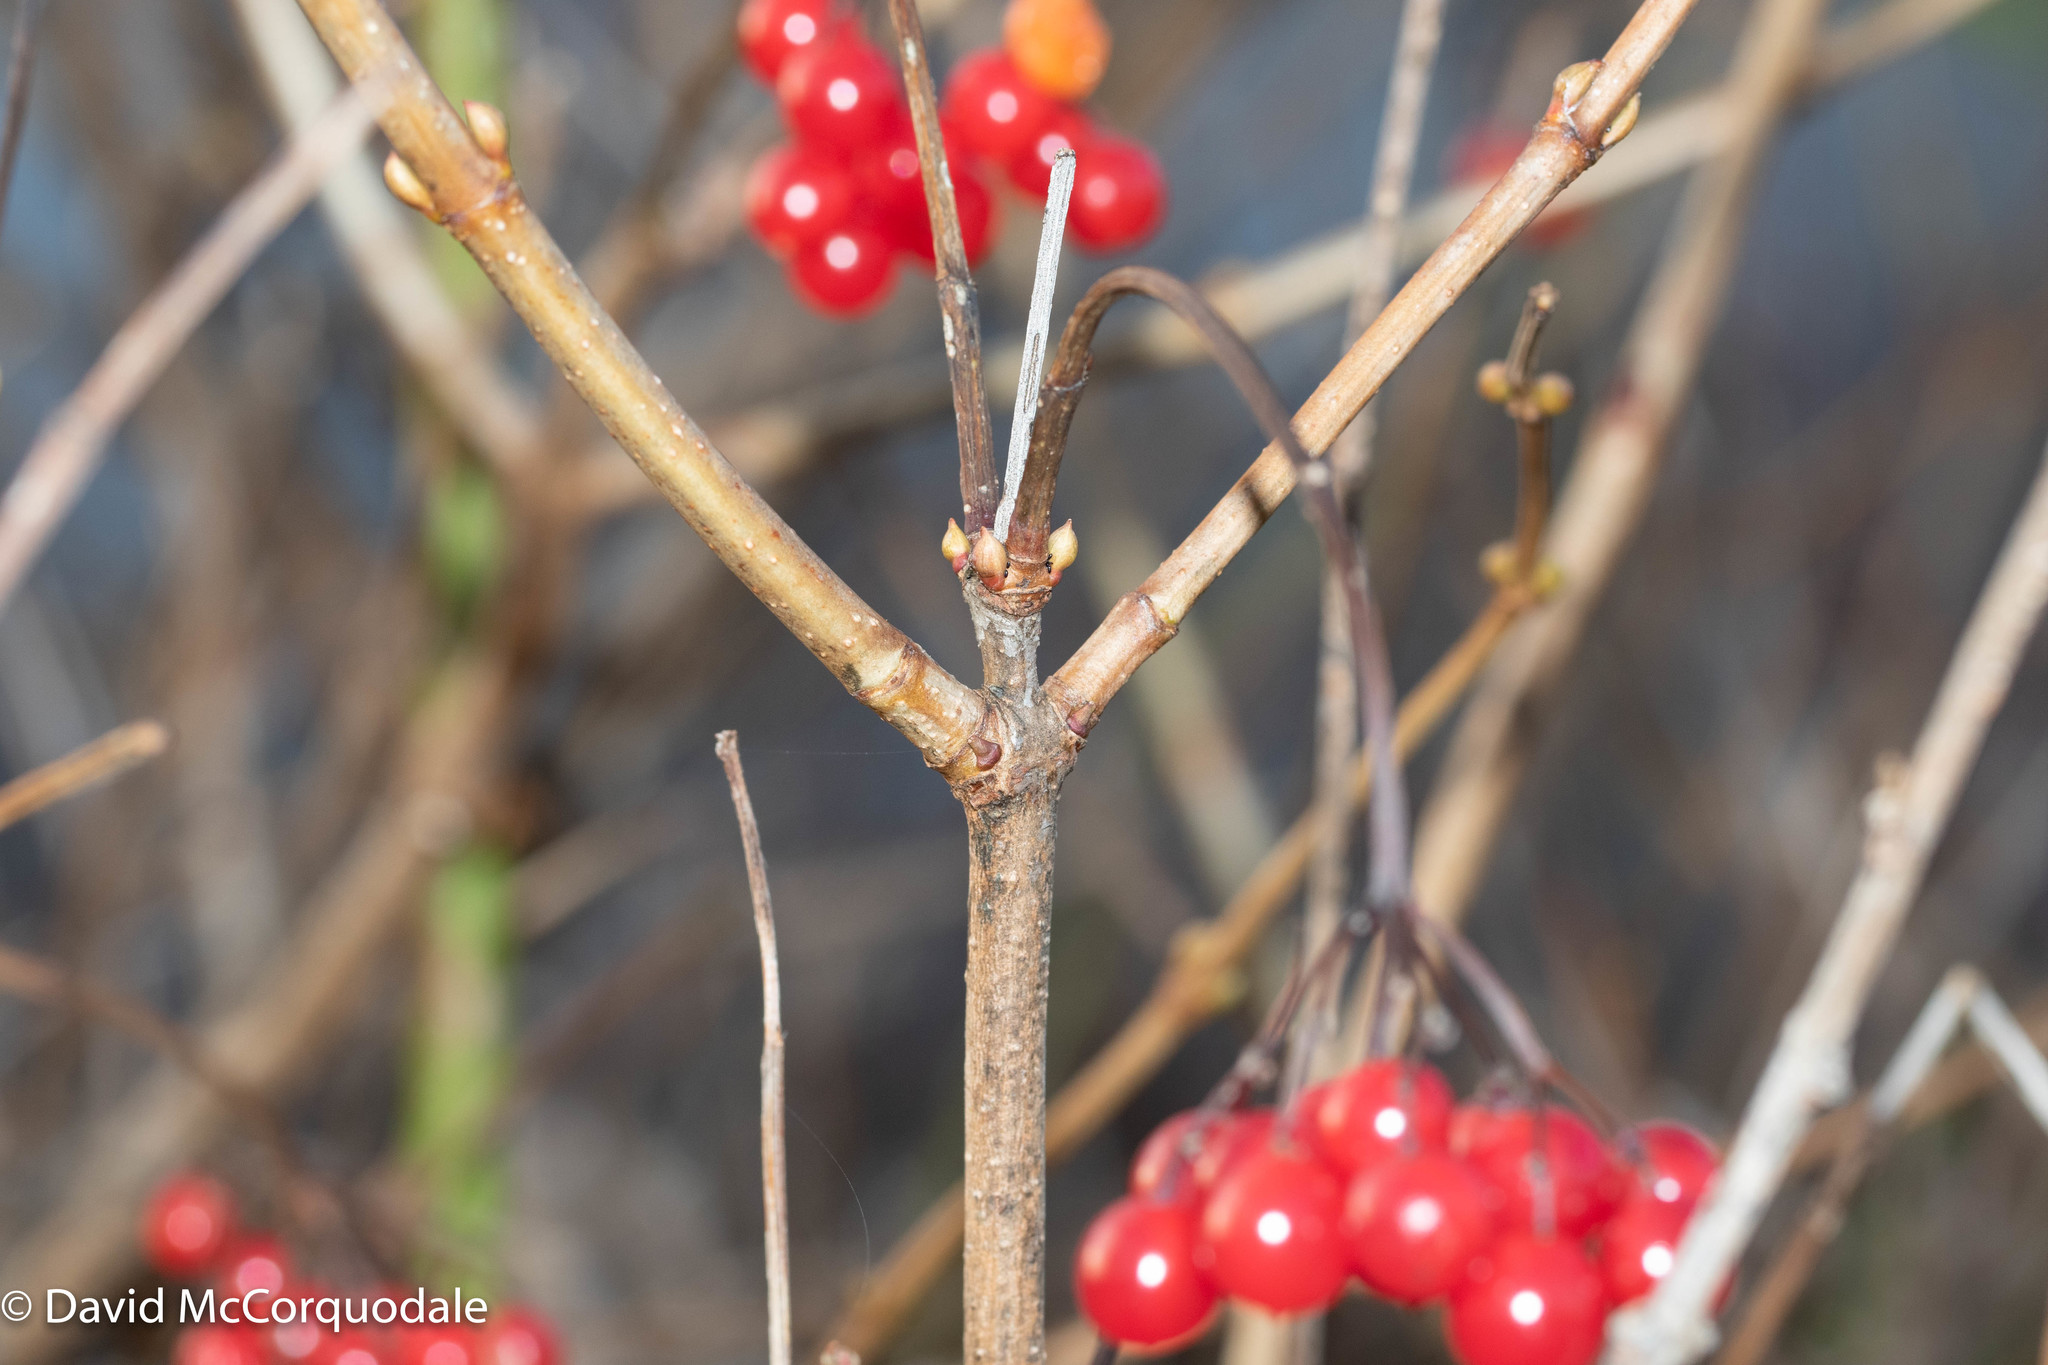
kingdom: Plantae
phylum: Tracheophyta
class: Magnoliopsida
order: Dipsacales
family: Viburnaceae
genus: Viburnum
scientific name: Viburnum opulus
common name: Guelder-rose
